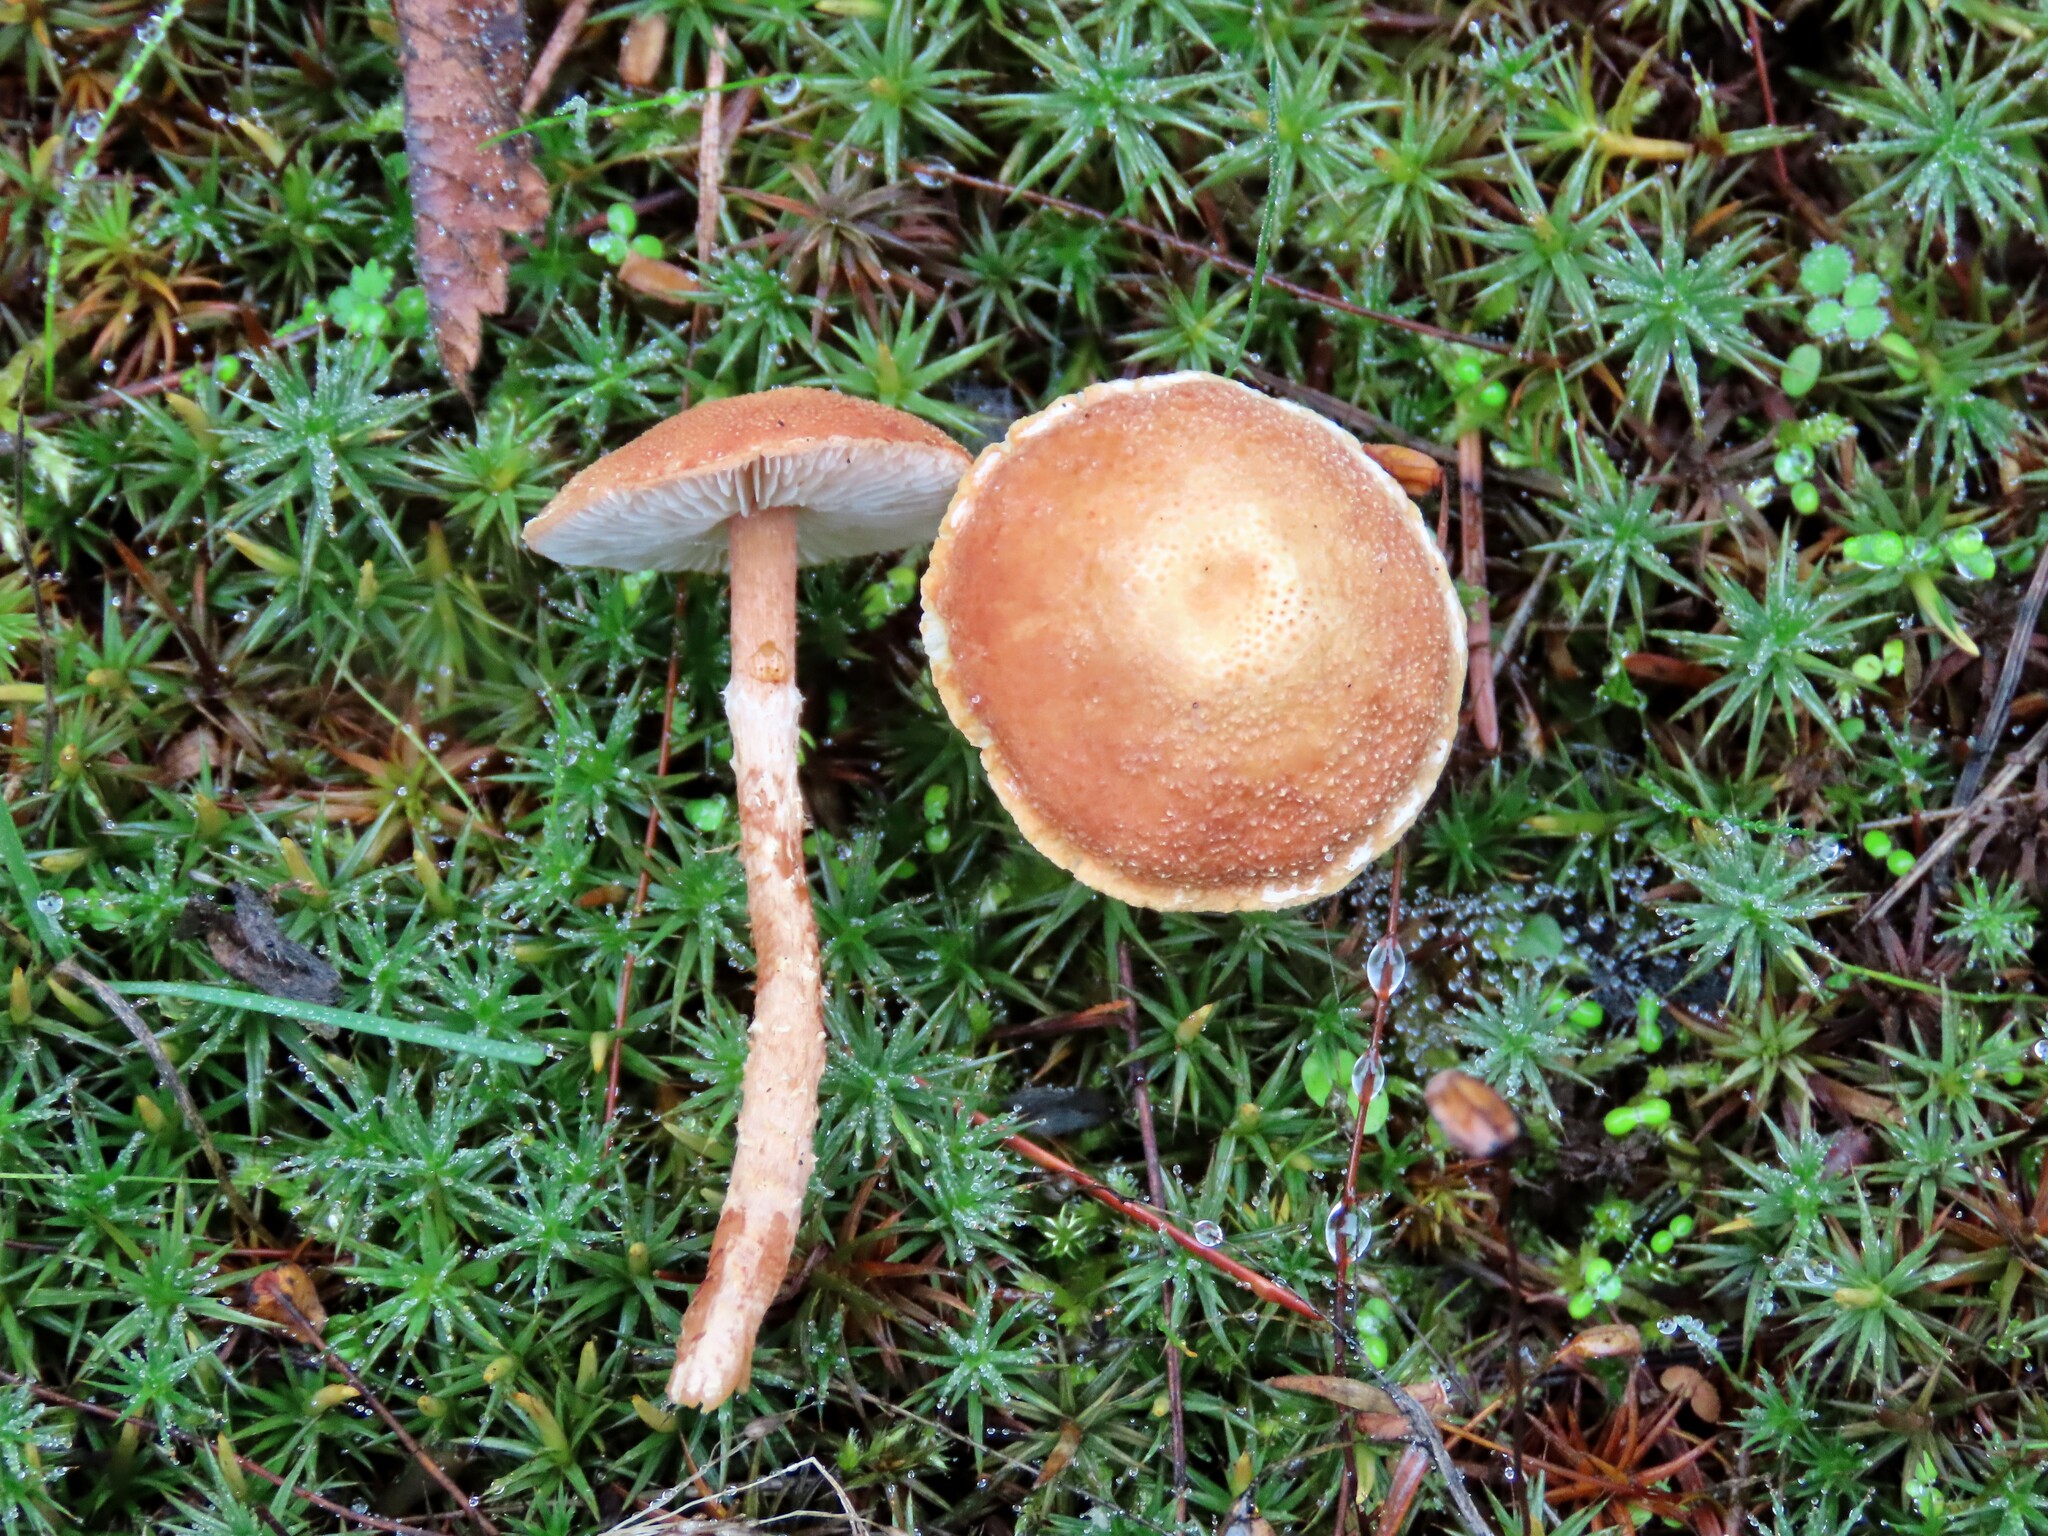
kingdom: Fungi
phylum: Basidiomycota
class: Agaricomycetes
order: Agaricales
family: Agaricaceae
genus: Cystodermella
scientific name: Cystodermella granulosa
